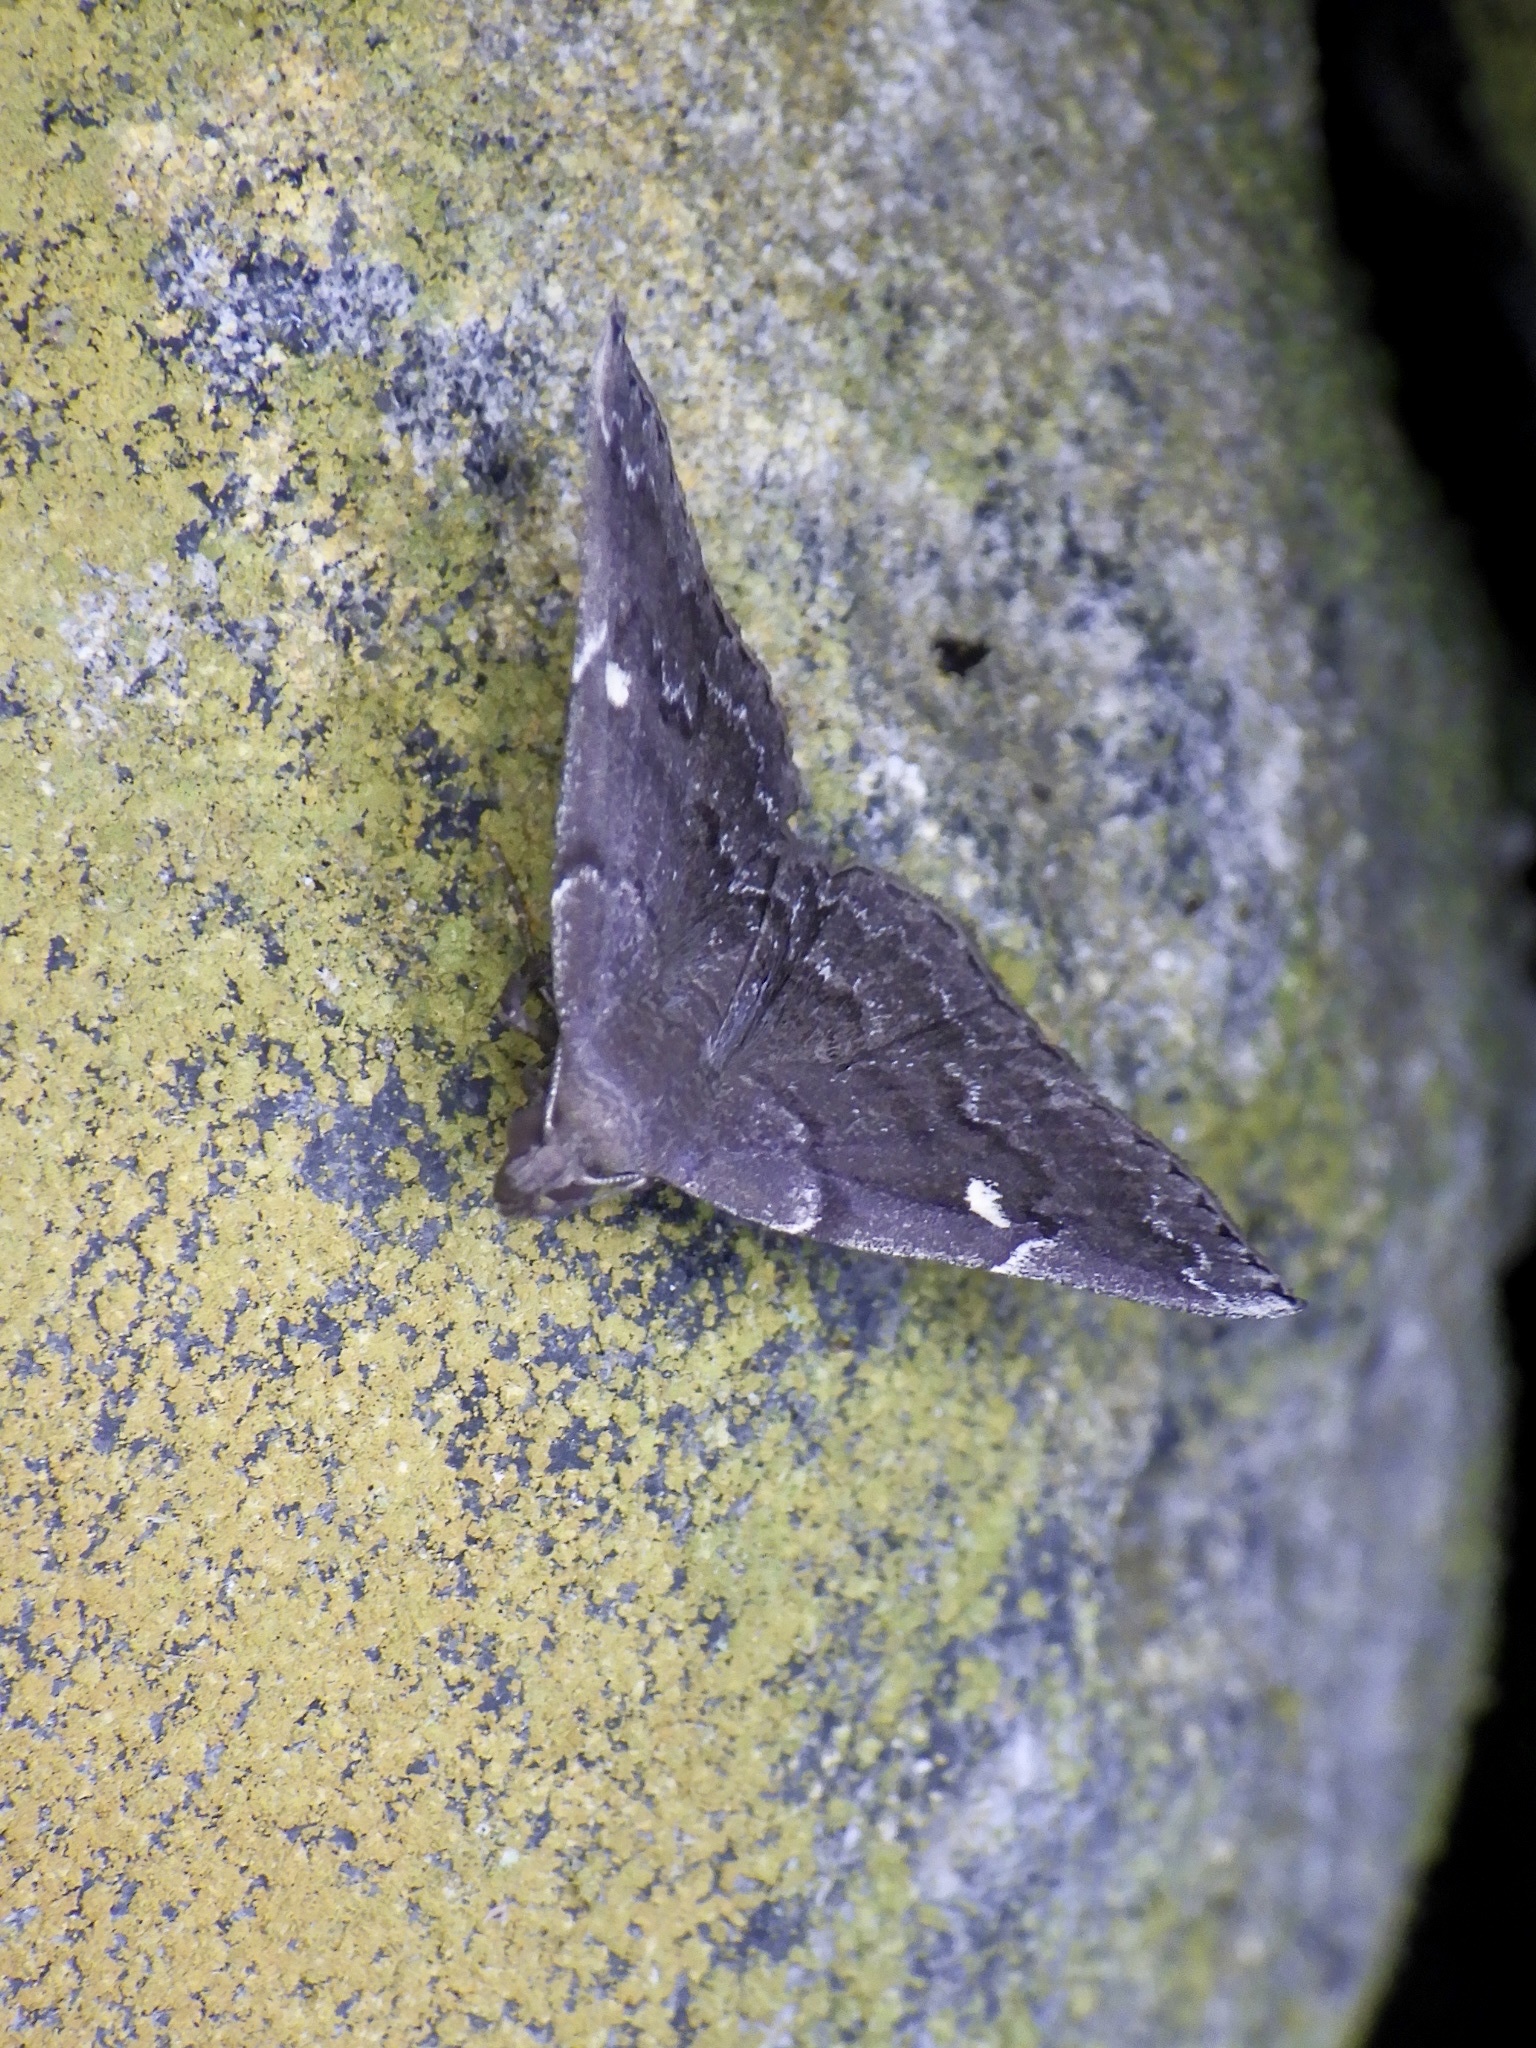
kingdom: Animalia
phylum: Arthropoda
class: Insecta
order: Lepidoptera
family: Erebidae
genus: Idia
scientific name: Idia curvipalpis
